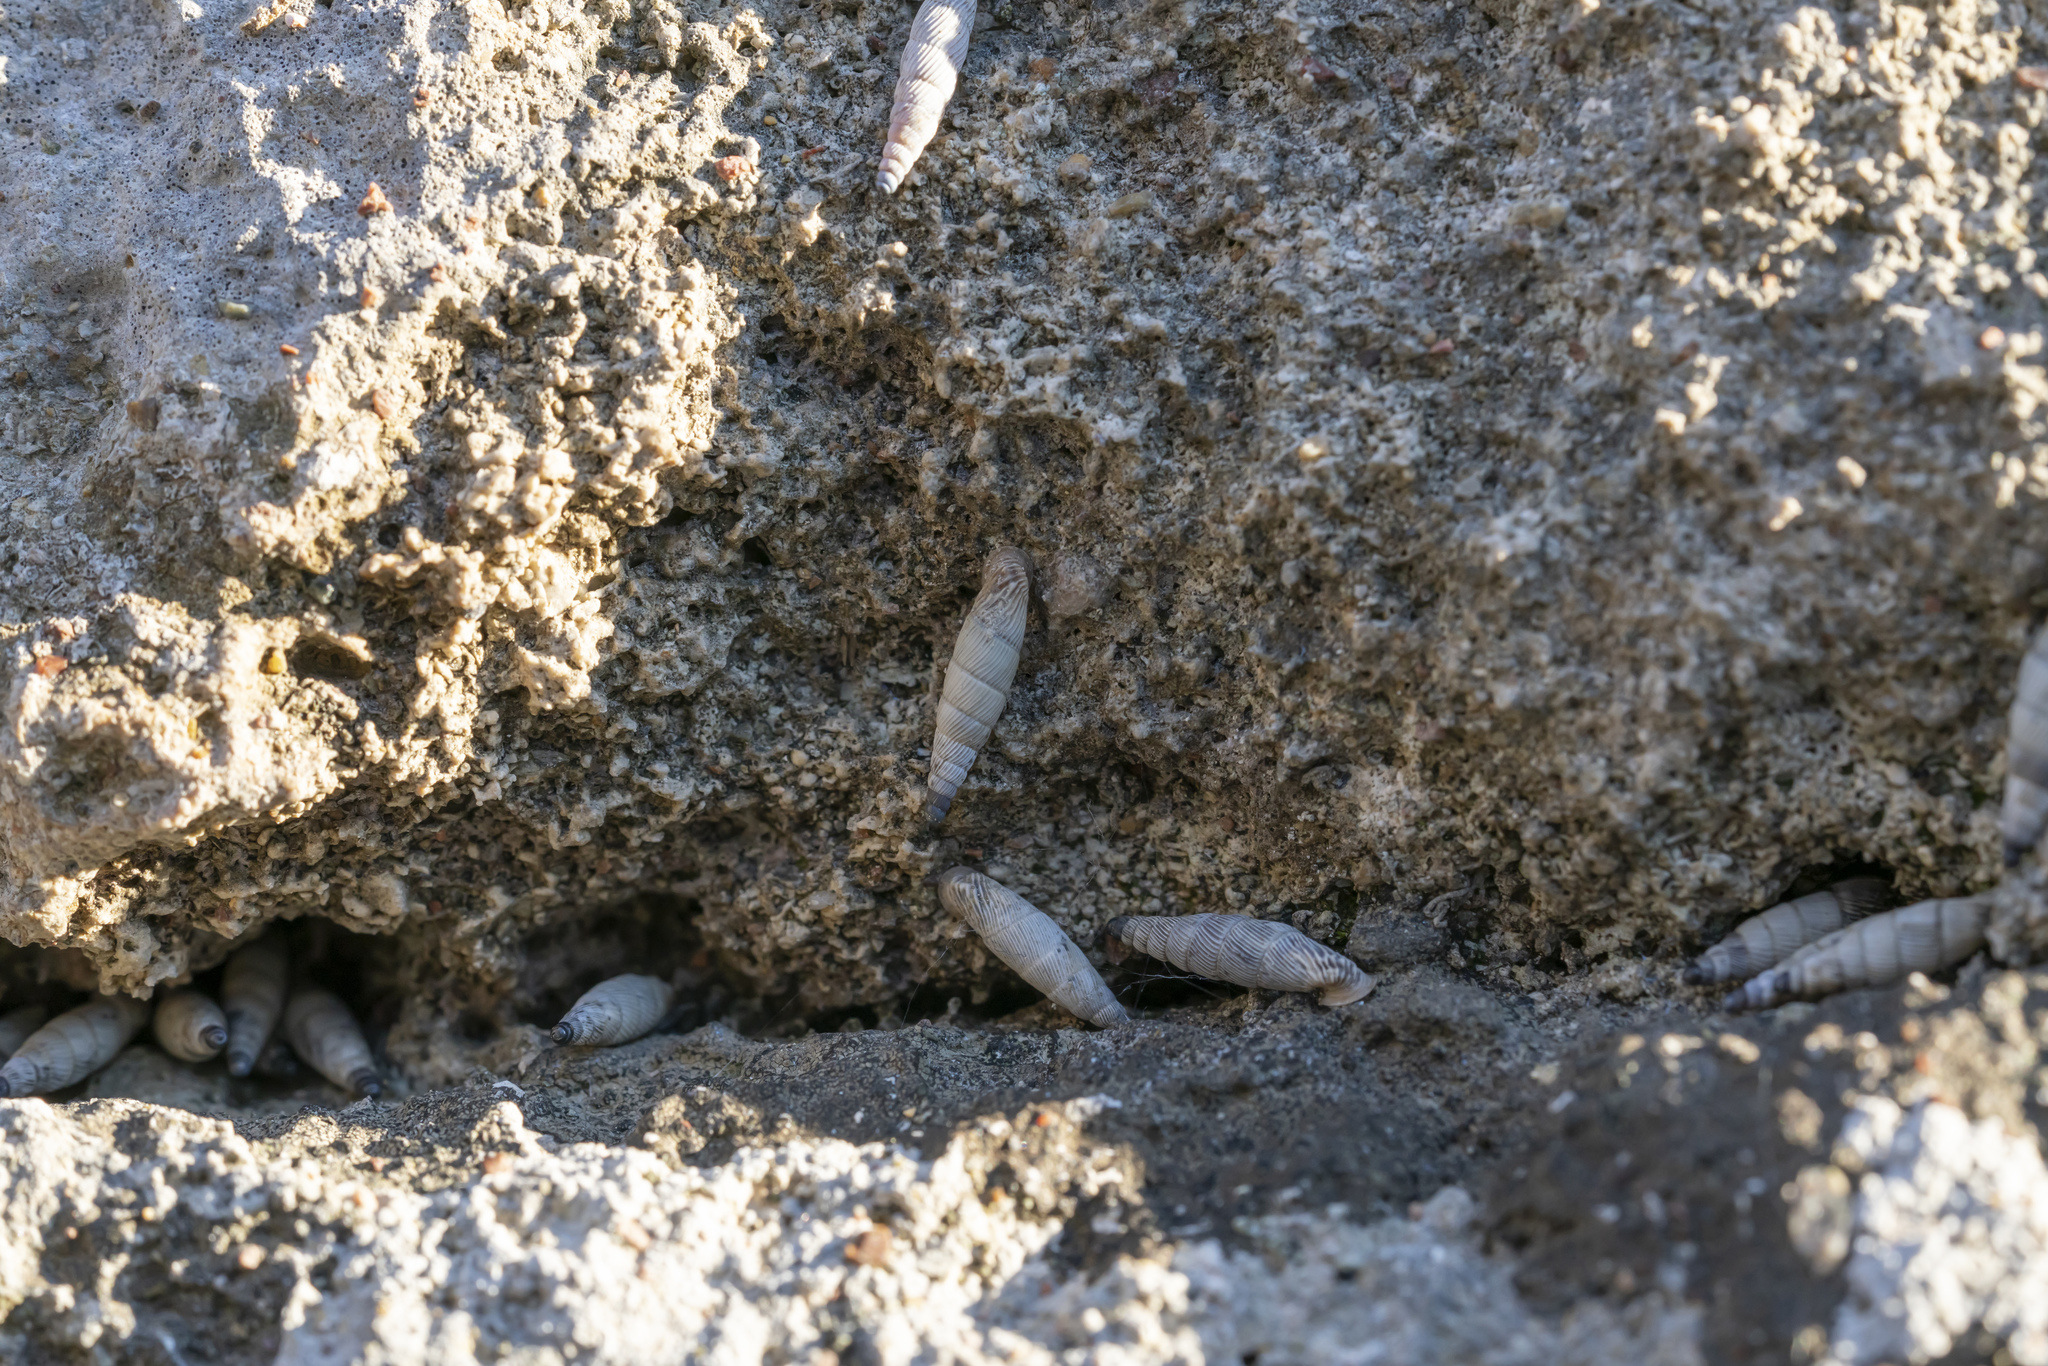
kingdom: Animalia
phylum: Mollusca
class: Gastropoda
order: Stylommatophora
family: Clausiliidae
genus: Albinaria
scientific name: Albinaria brevicollis
